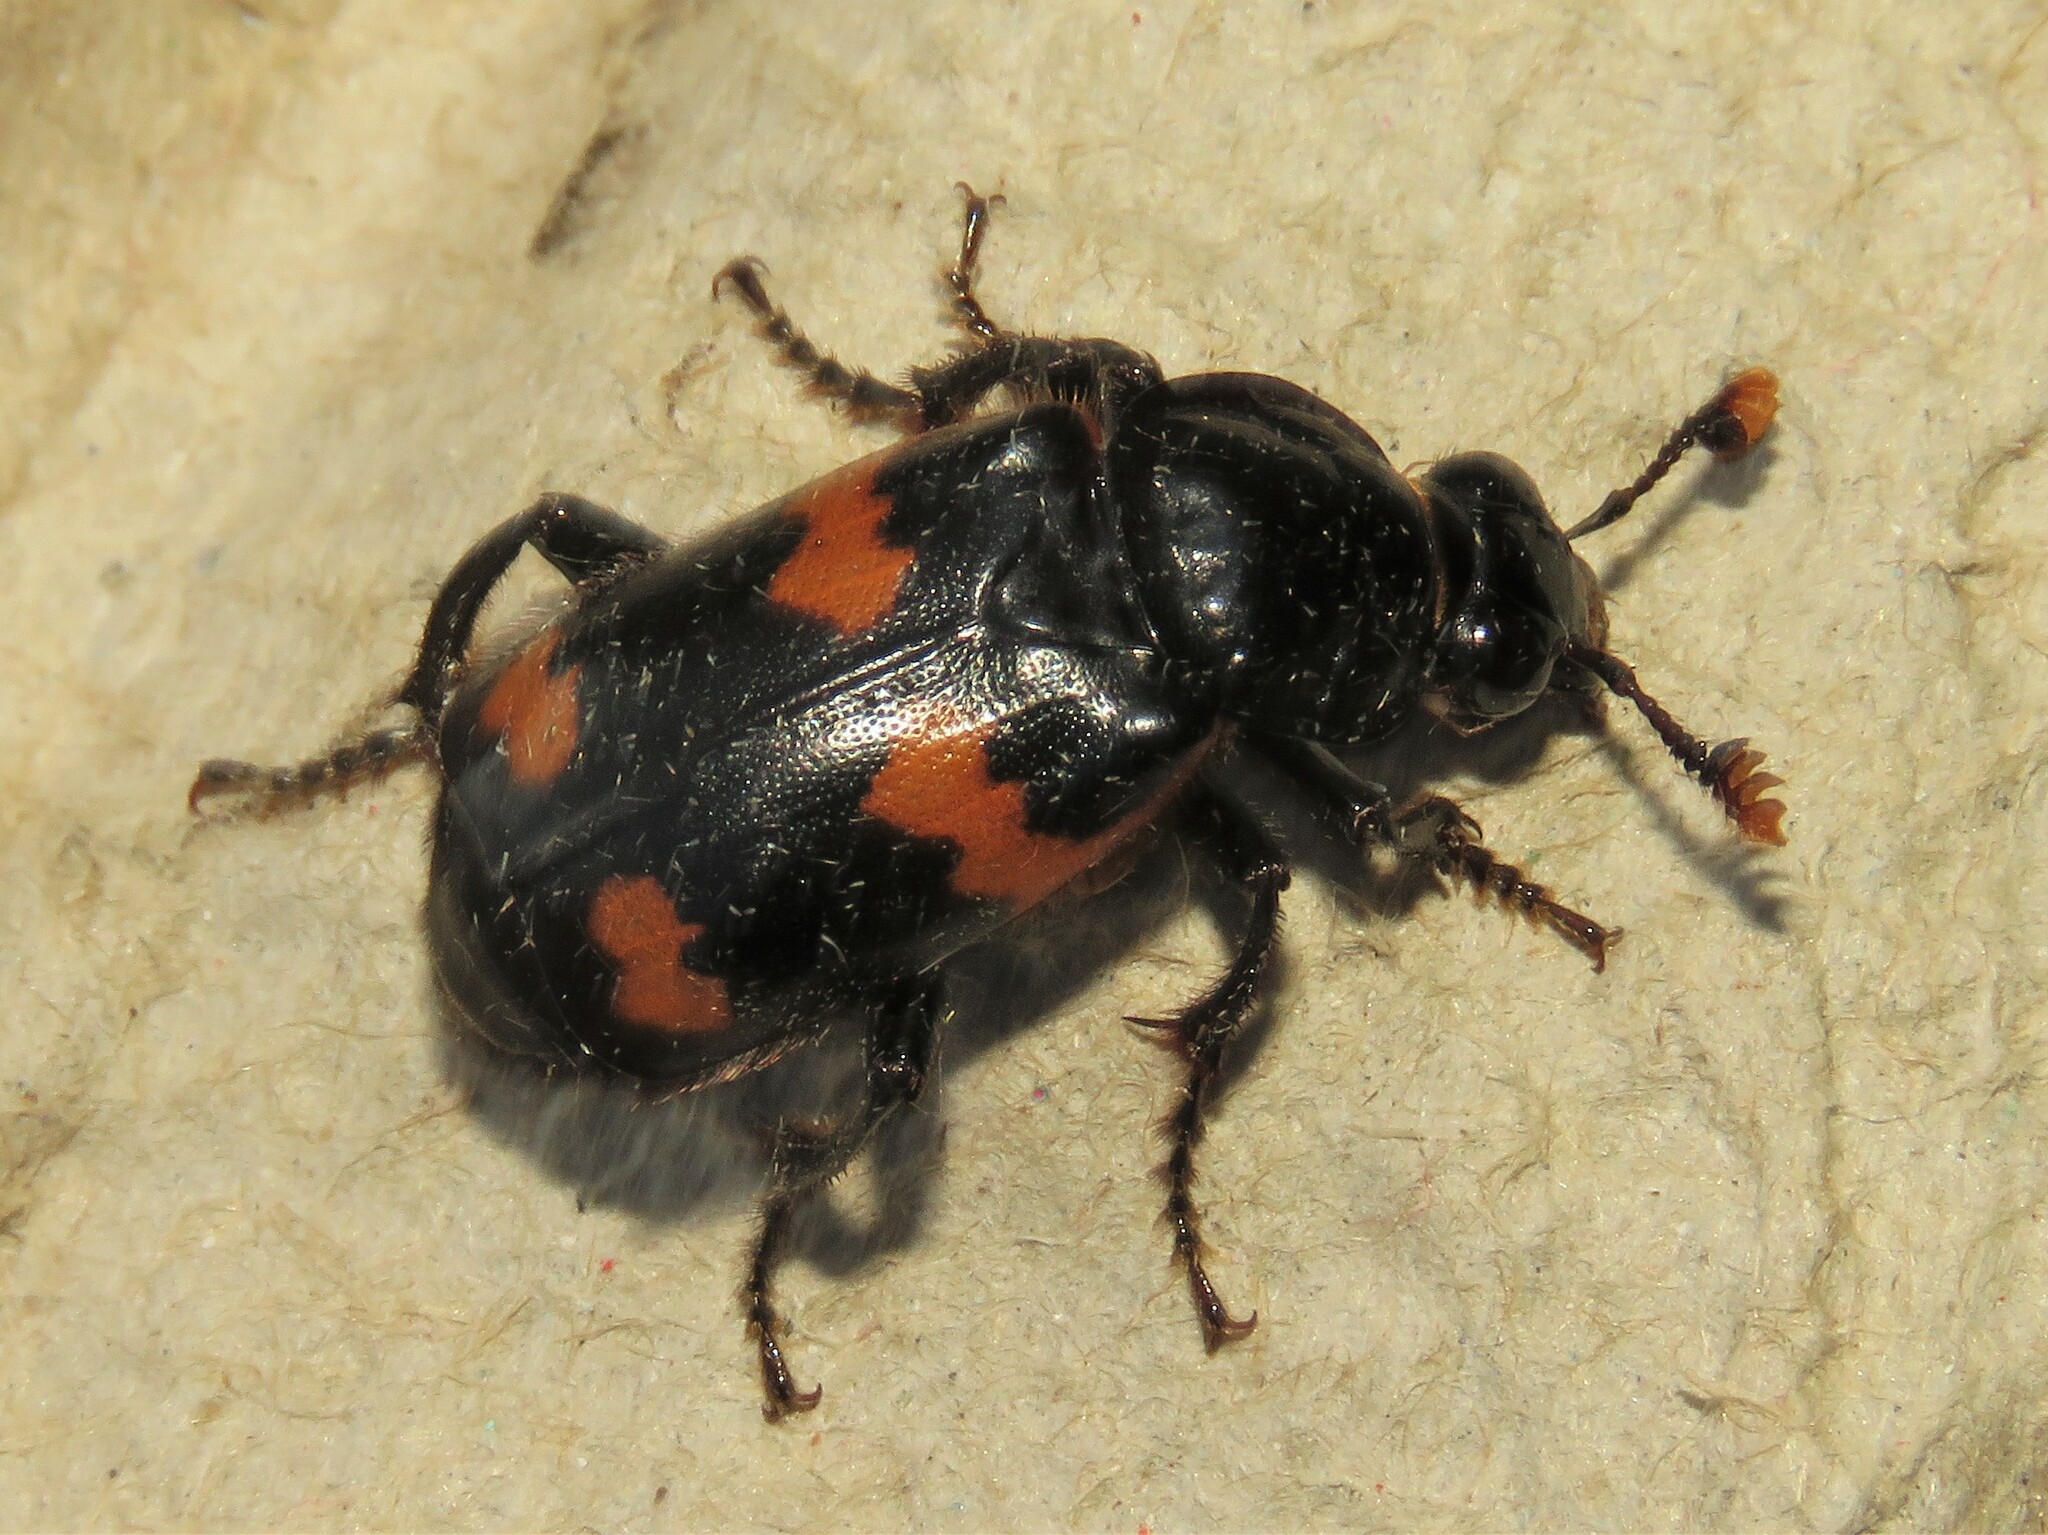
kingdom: Animalia
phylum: Arthropoda
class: Insecta
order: Coleoptera
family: Staphylinidae
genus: Nicrophorus
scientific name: Nicrophorus sayi
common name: Say's burying beetle
